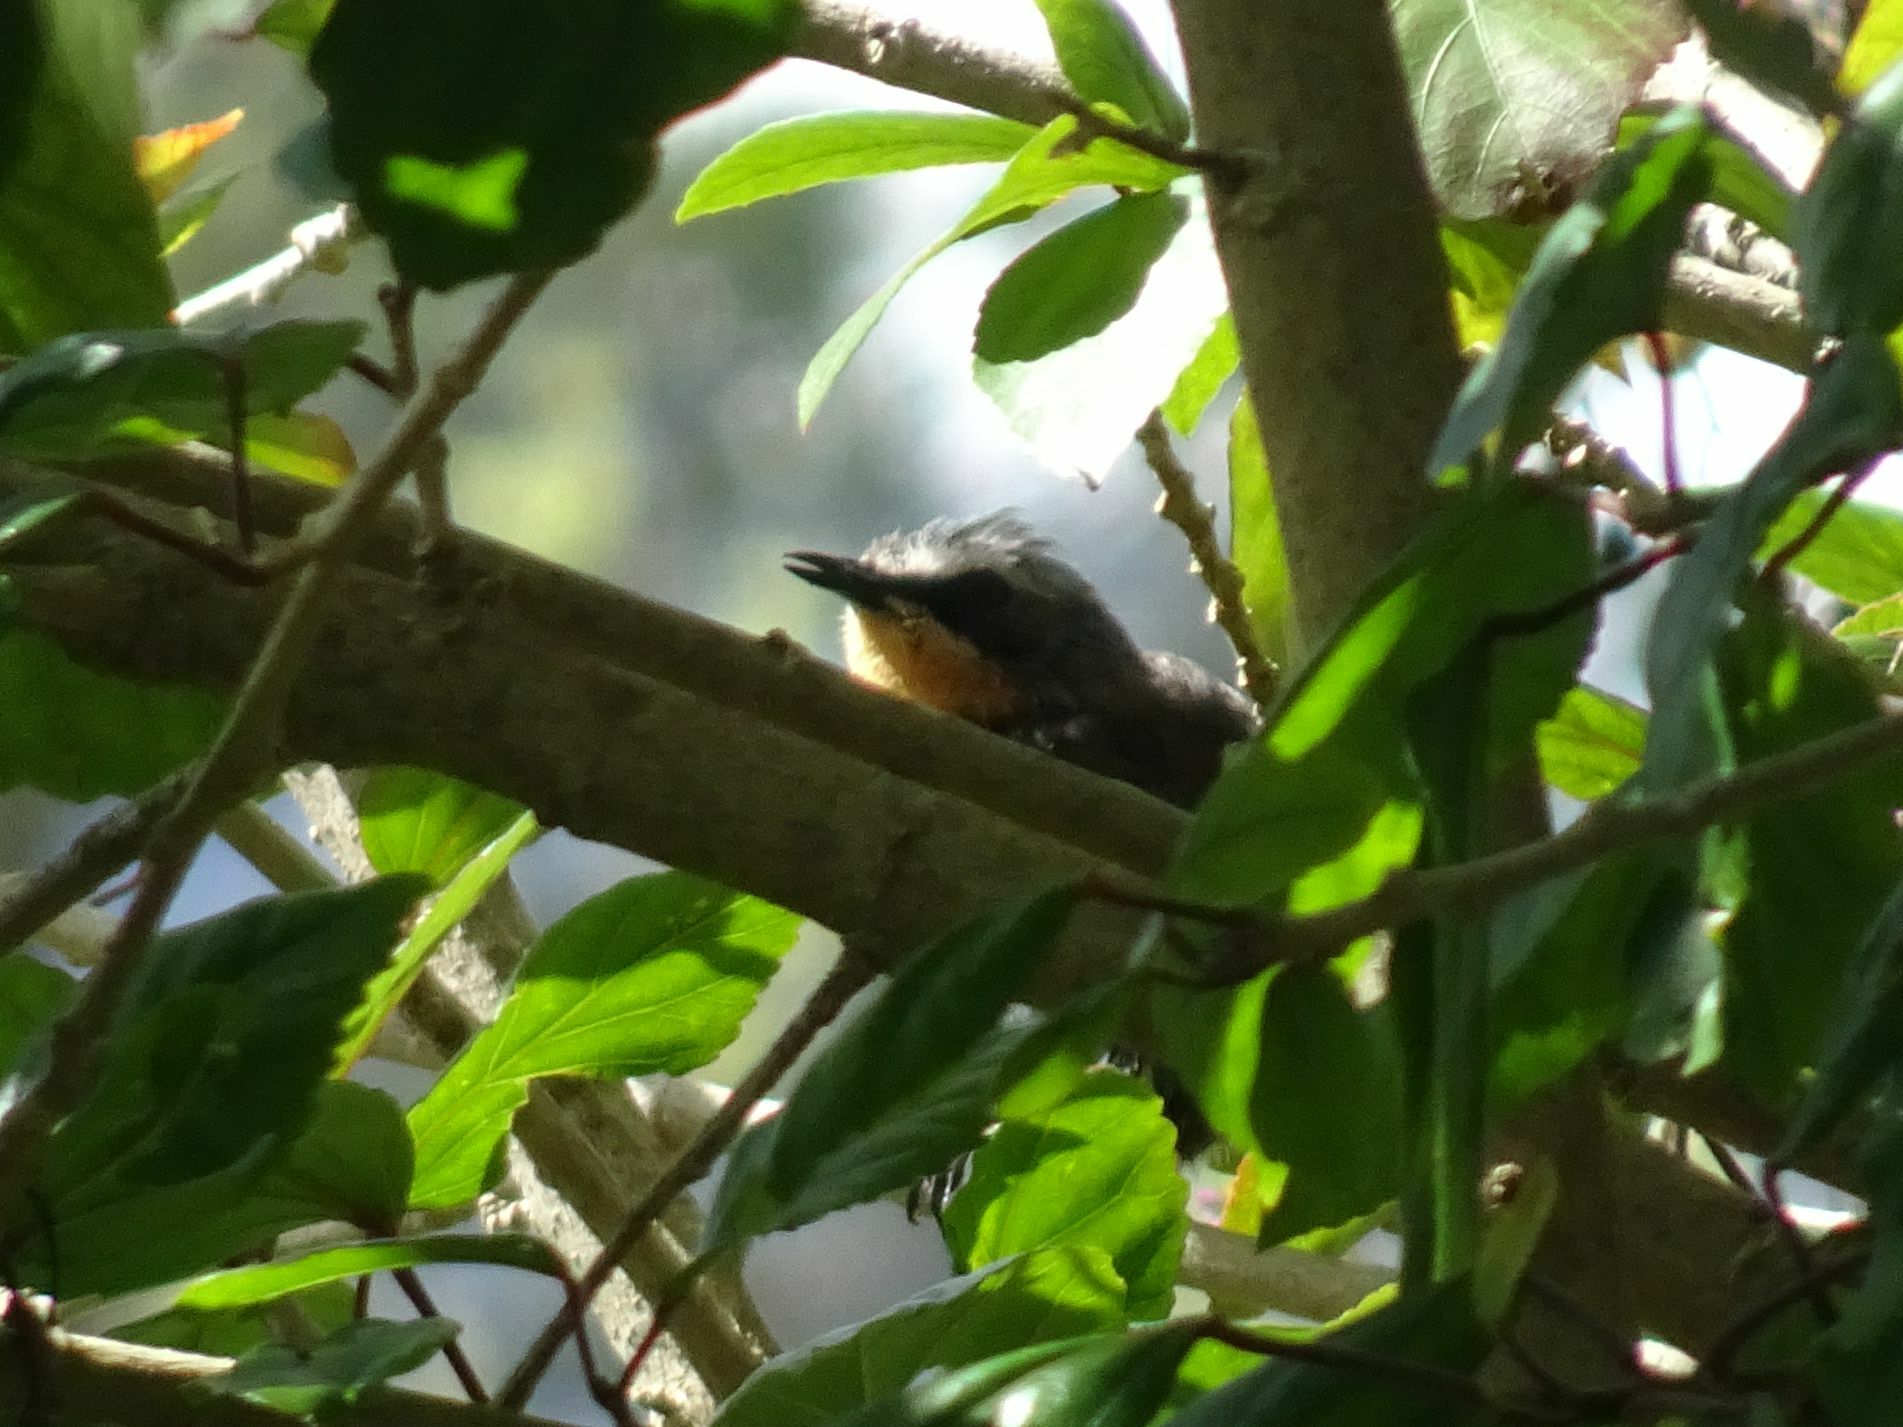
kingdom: Animalia
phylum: Chordata
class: Aves
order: Passeriformes
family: Muscicapidae
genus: Cossypha
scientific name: Cossypha caffra
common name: Cape robin-chat
